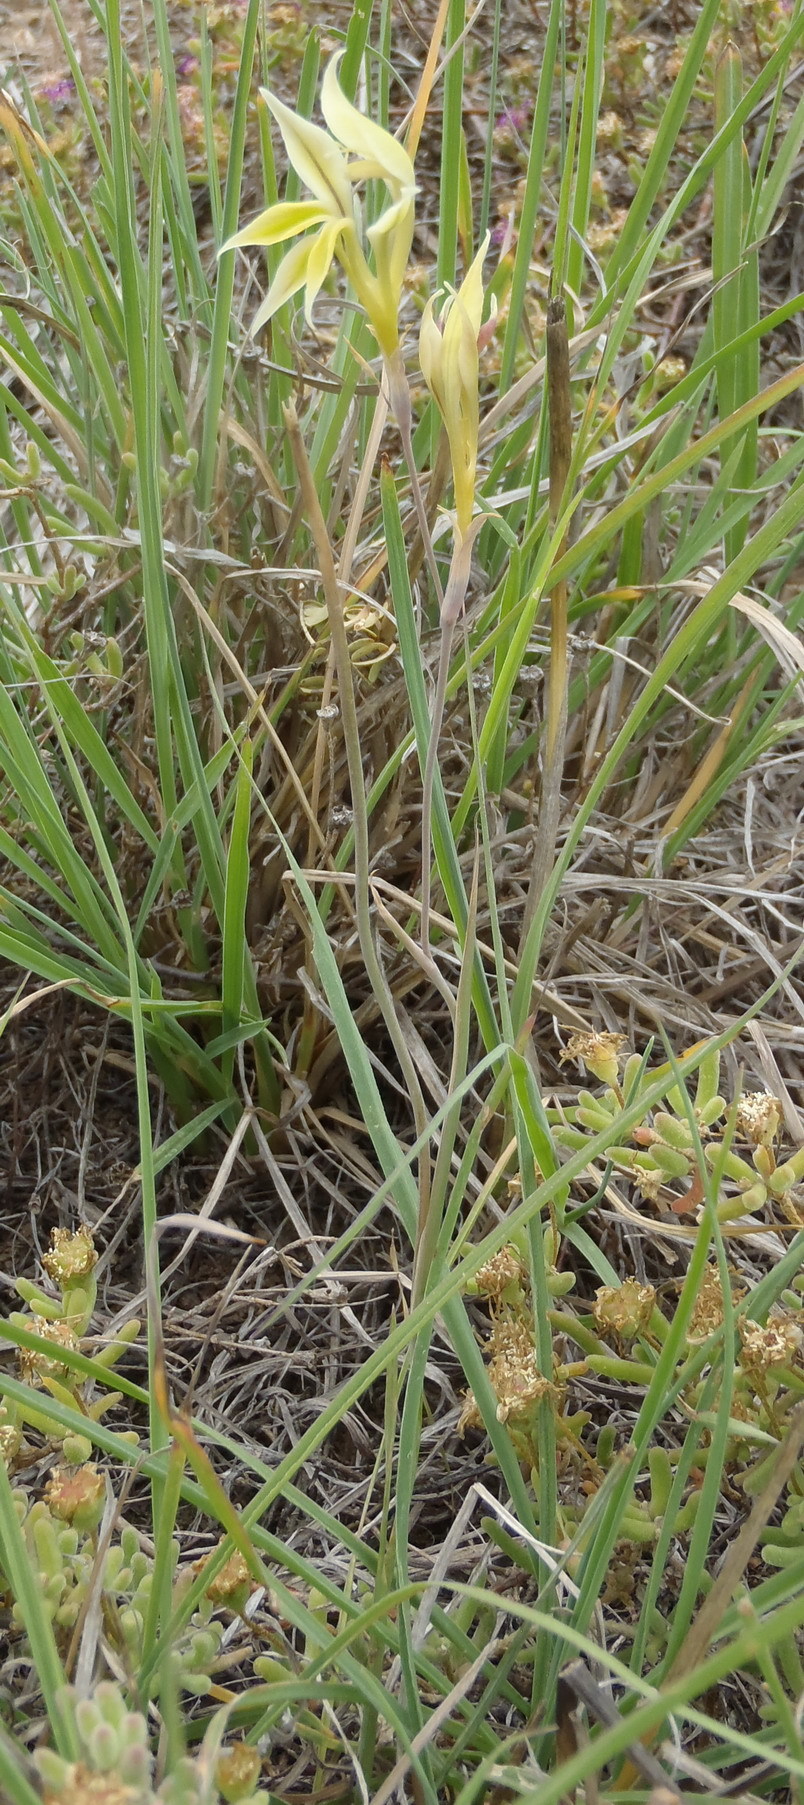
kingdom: Plantae
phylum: Tracheophyta
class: Liliopsida
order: Asparagales
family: Iridaceae
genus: Gladiolus
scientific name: Gladiolus permeabilis
